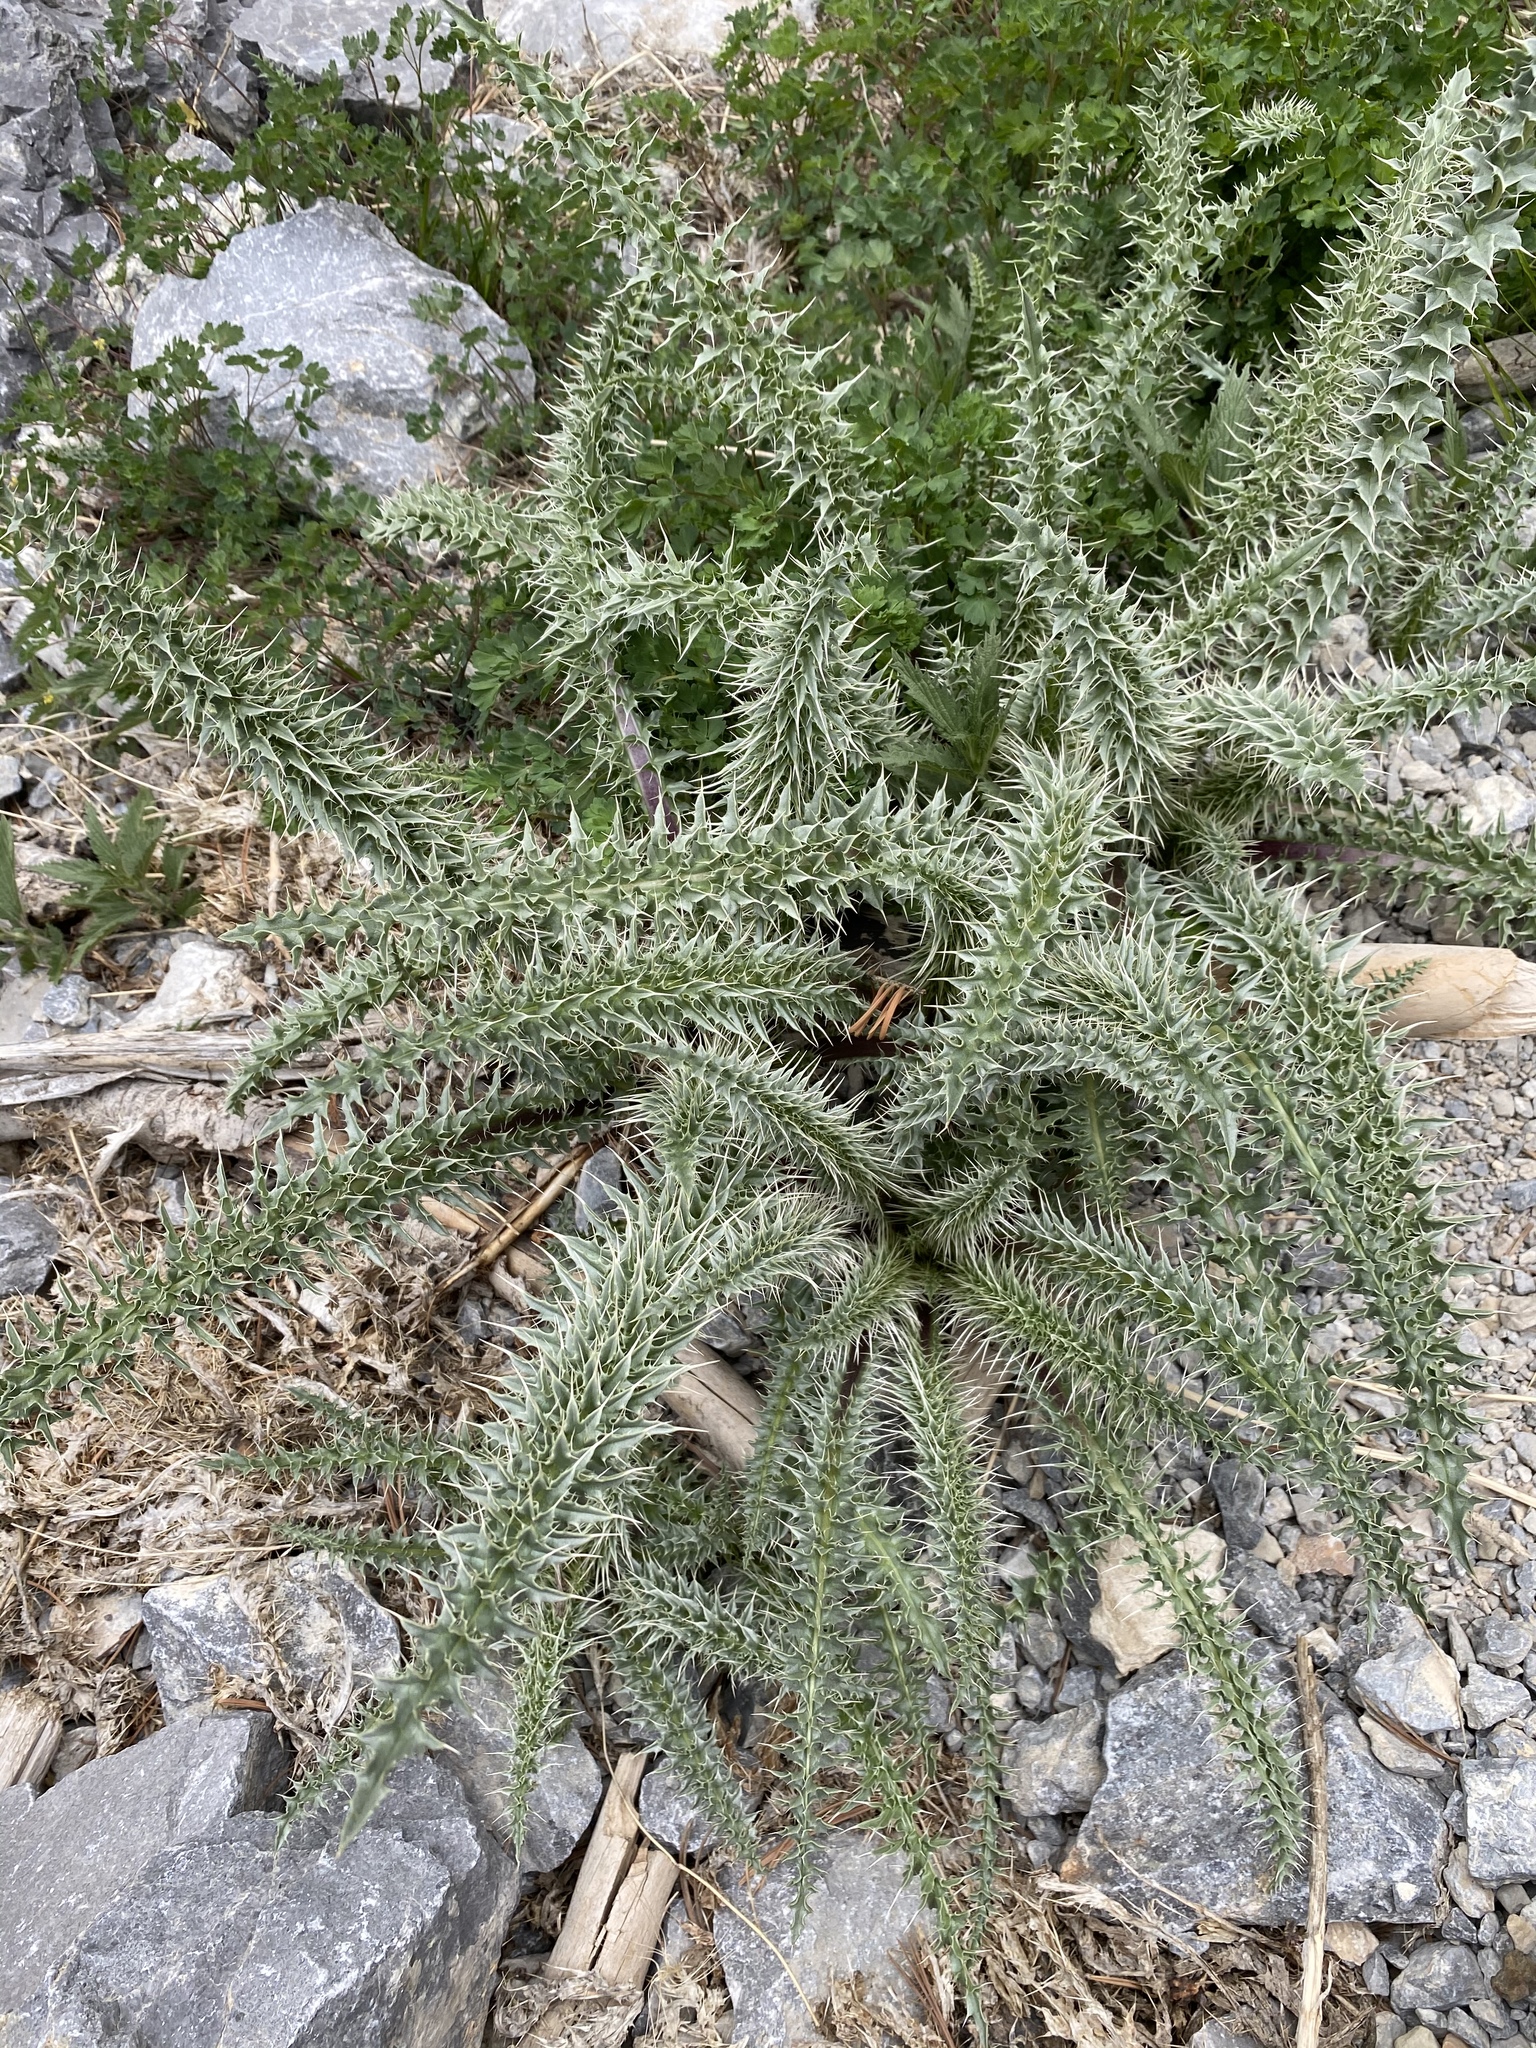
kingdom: Plantae
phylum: Tracheophyta
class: Magnoliopsida
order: Asterales
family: Asteraceae
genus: Cirsium
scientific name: Cirsium eatonii
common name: Eaton's thistle
